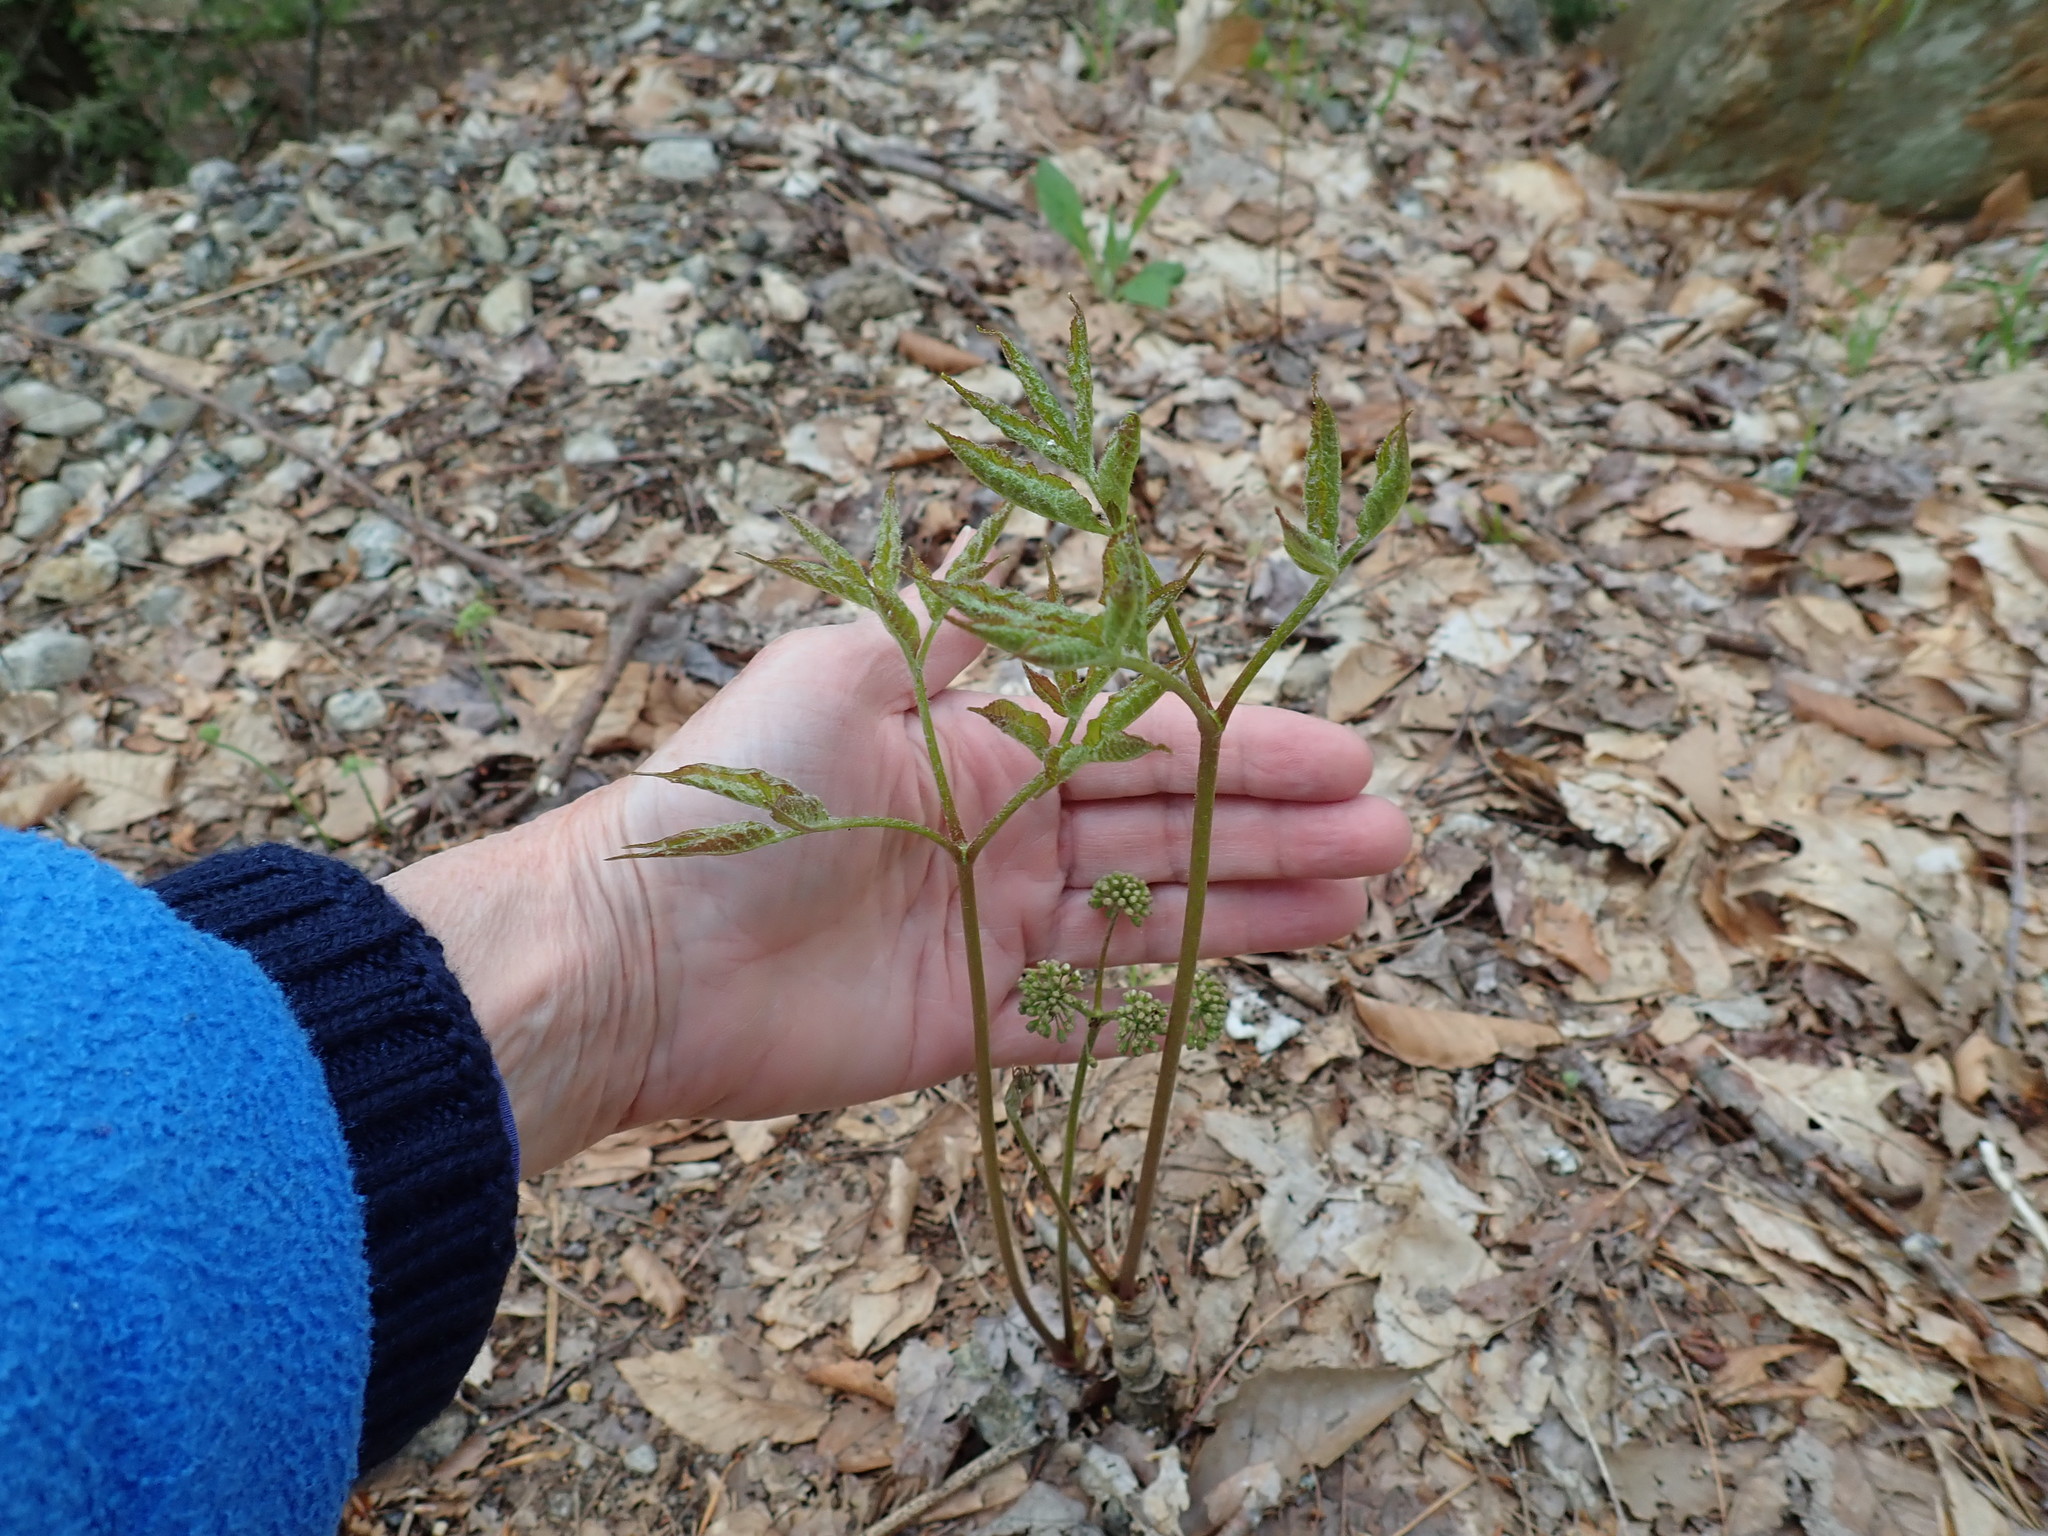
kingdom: Plantae
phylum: Tracheophyta
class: Magnoliopsida
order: Apiales
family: Araliaceae
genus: Aralia
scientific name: Aralia nudicaulis
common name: Wild sarsaparilla
